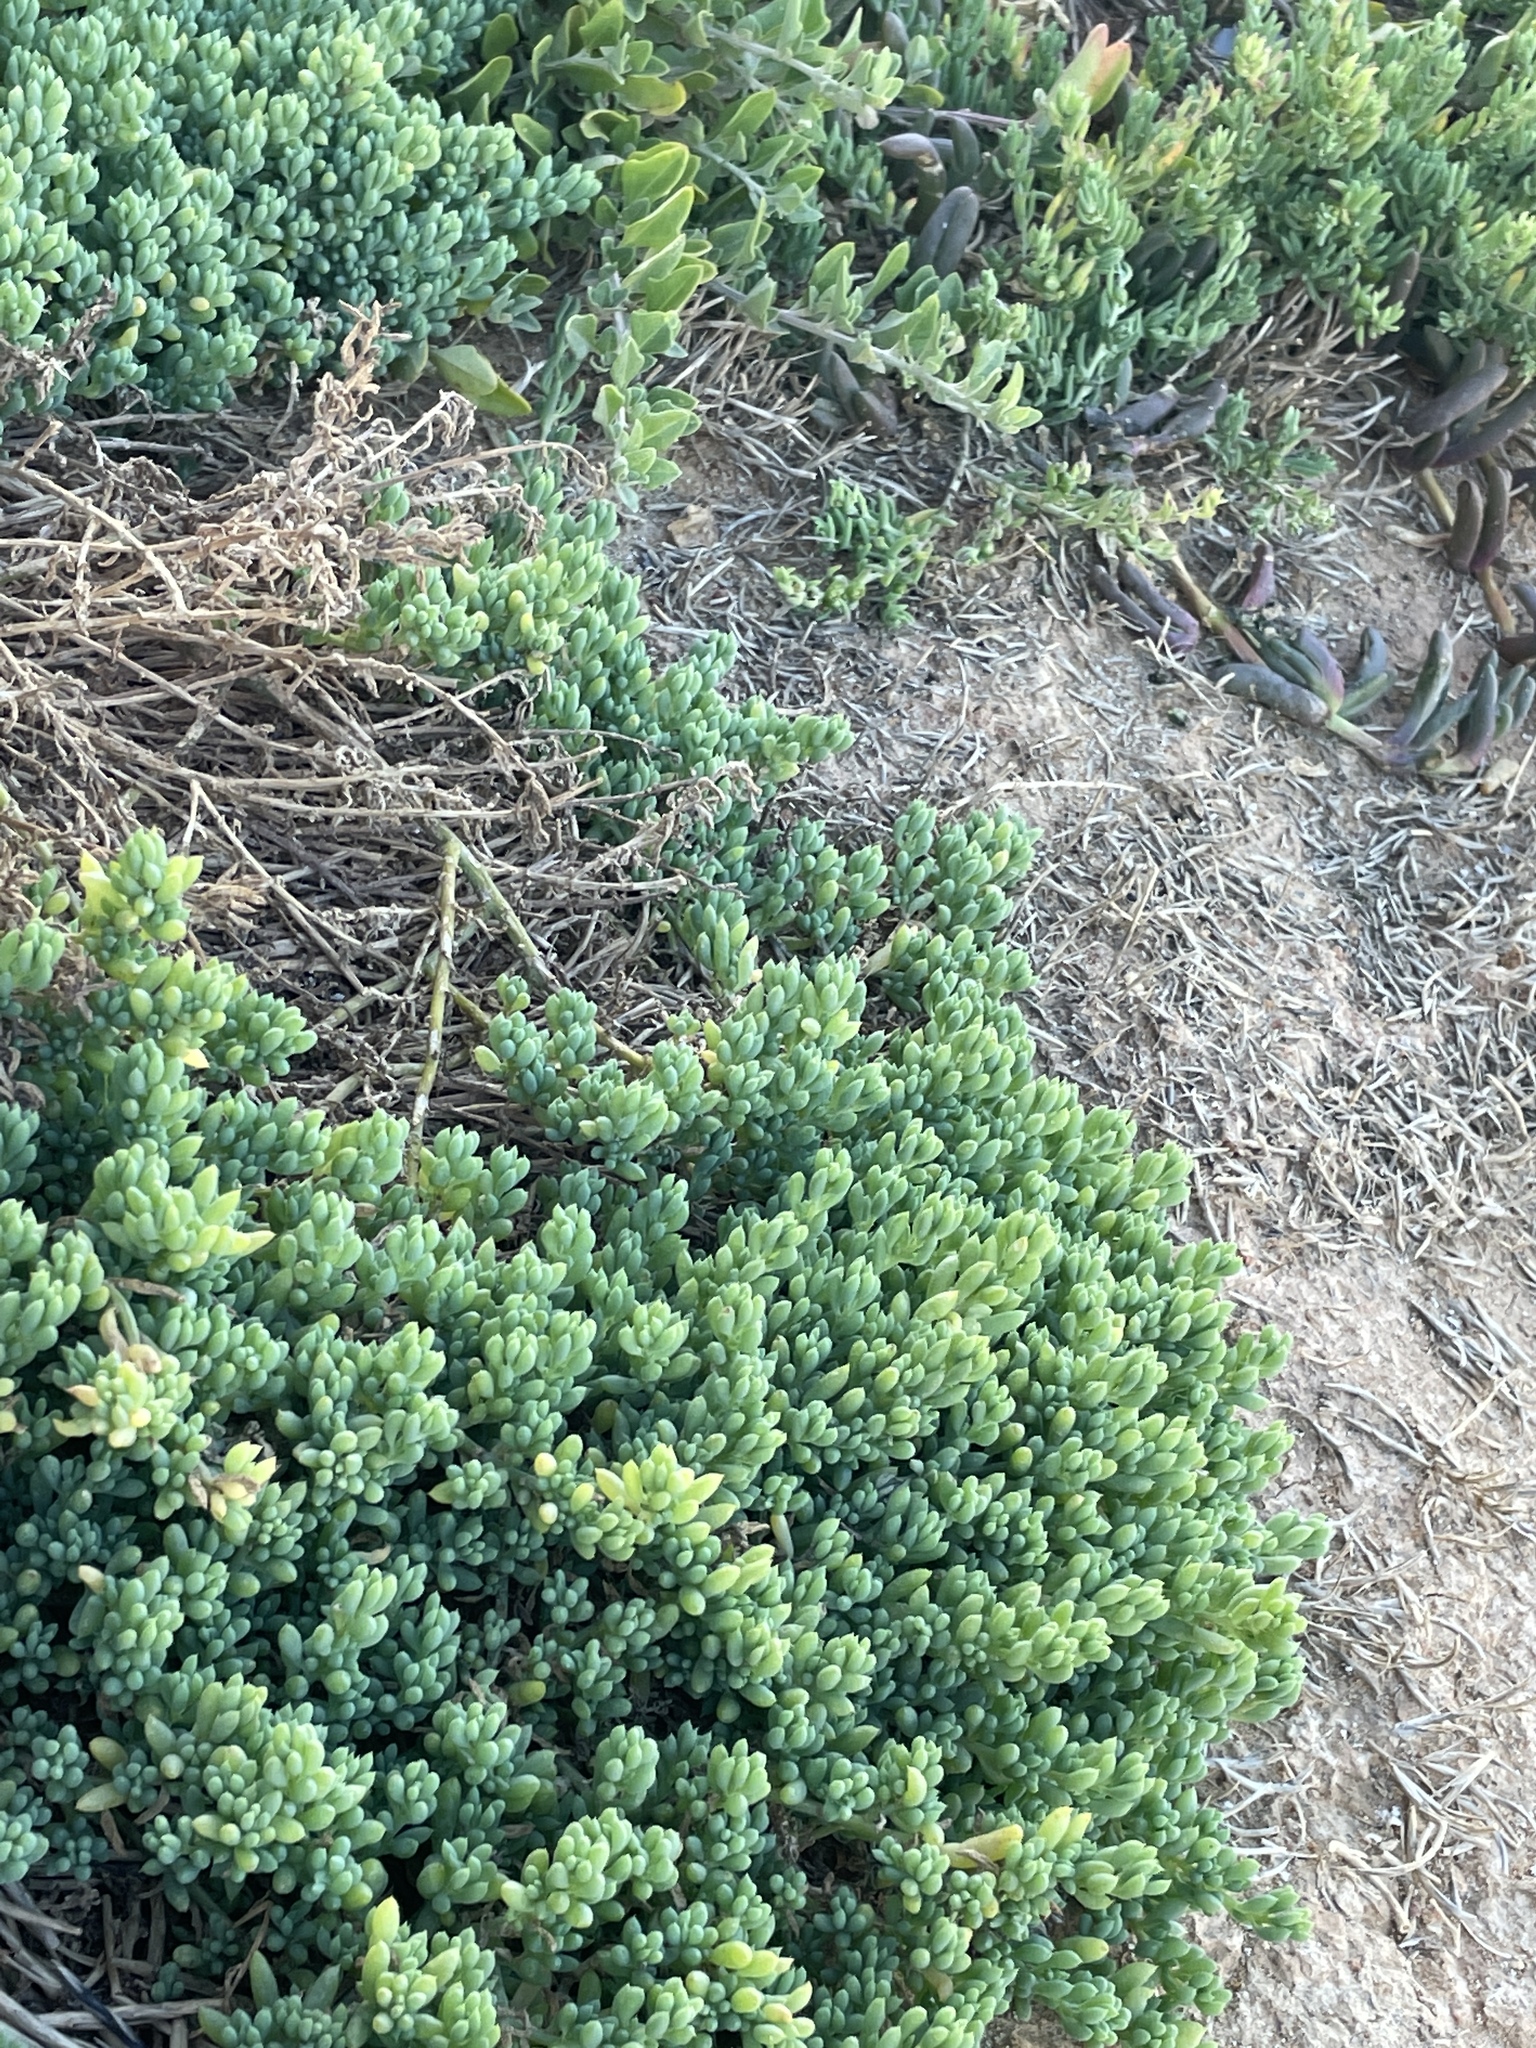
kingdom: Plantae
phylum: Tracheophyta
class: Magnoliopsida
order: Caryophyllales
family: Amaranthaceae
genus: Threlkeldia
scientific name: Threlkeldia diffusa
